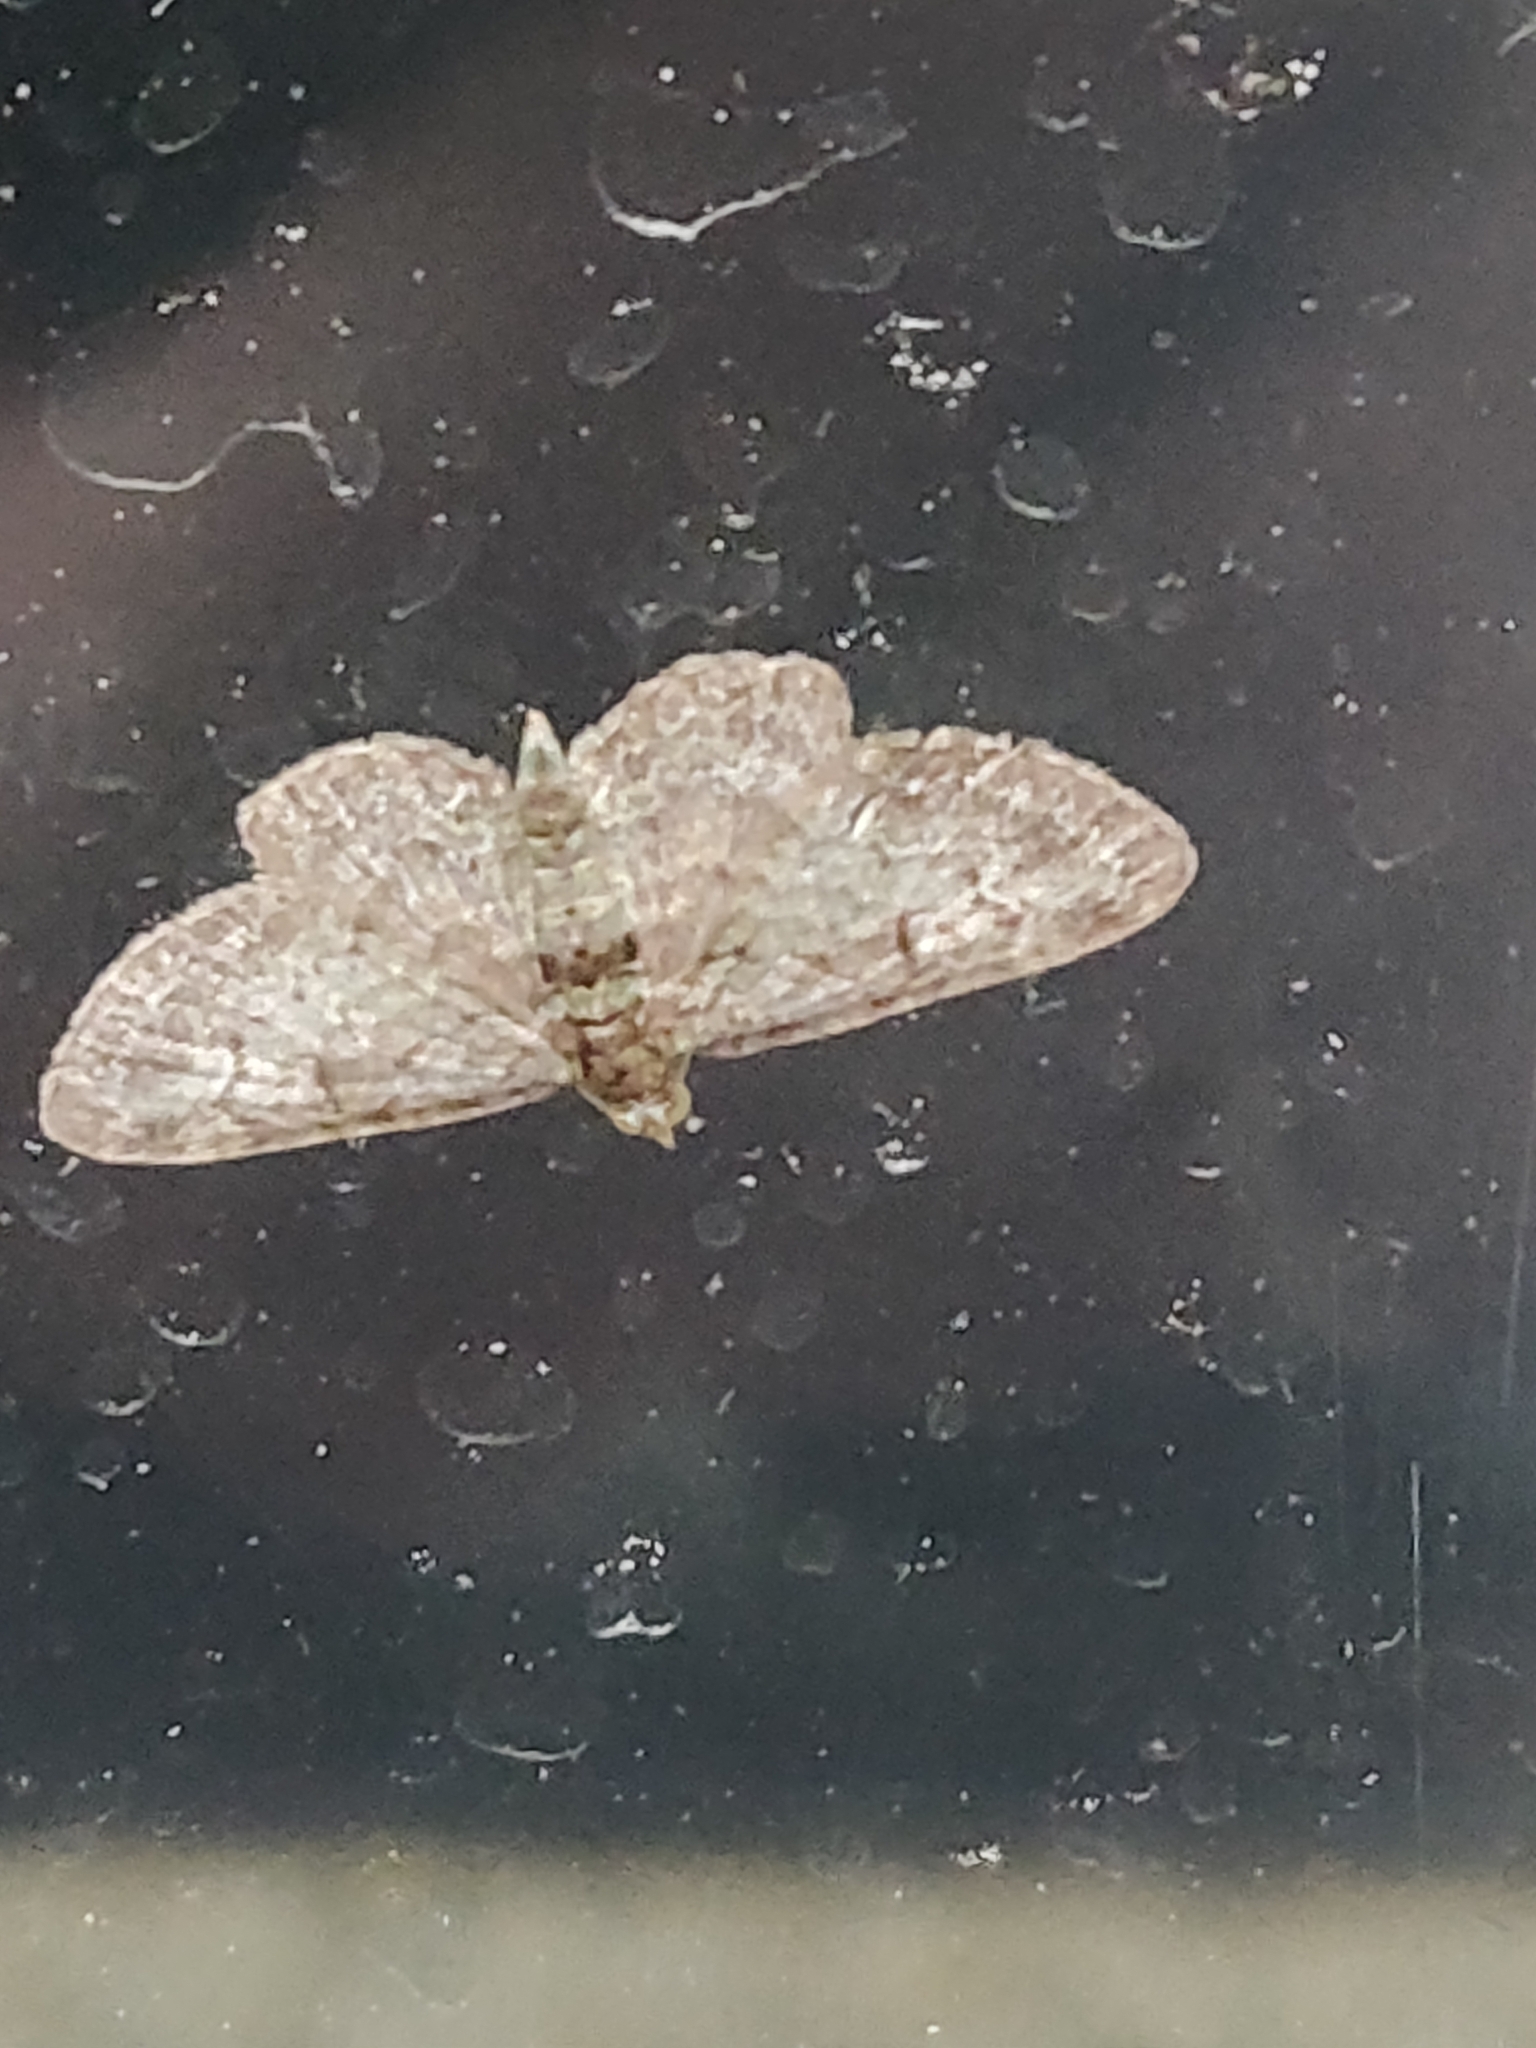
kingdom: Animalia
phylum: Arthropoda
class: Insecta
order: Lepidoptera
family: Geometridae
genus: Pasiphila
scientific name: Pasiphila rectangulata
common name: Green pug
